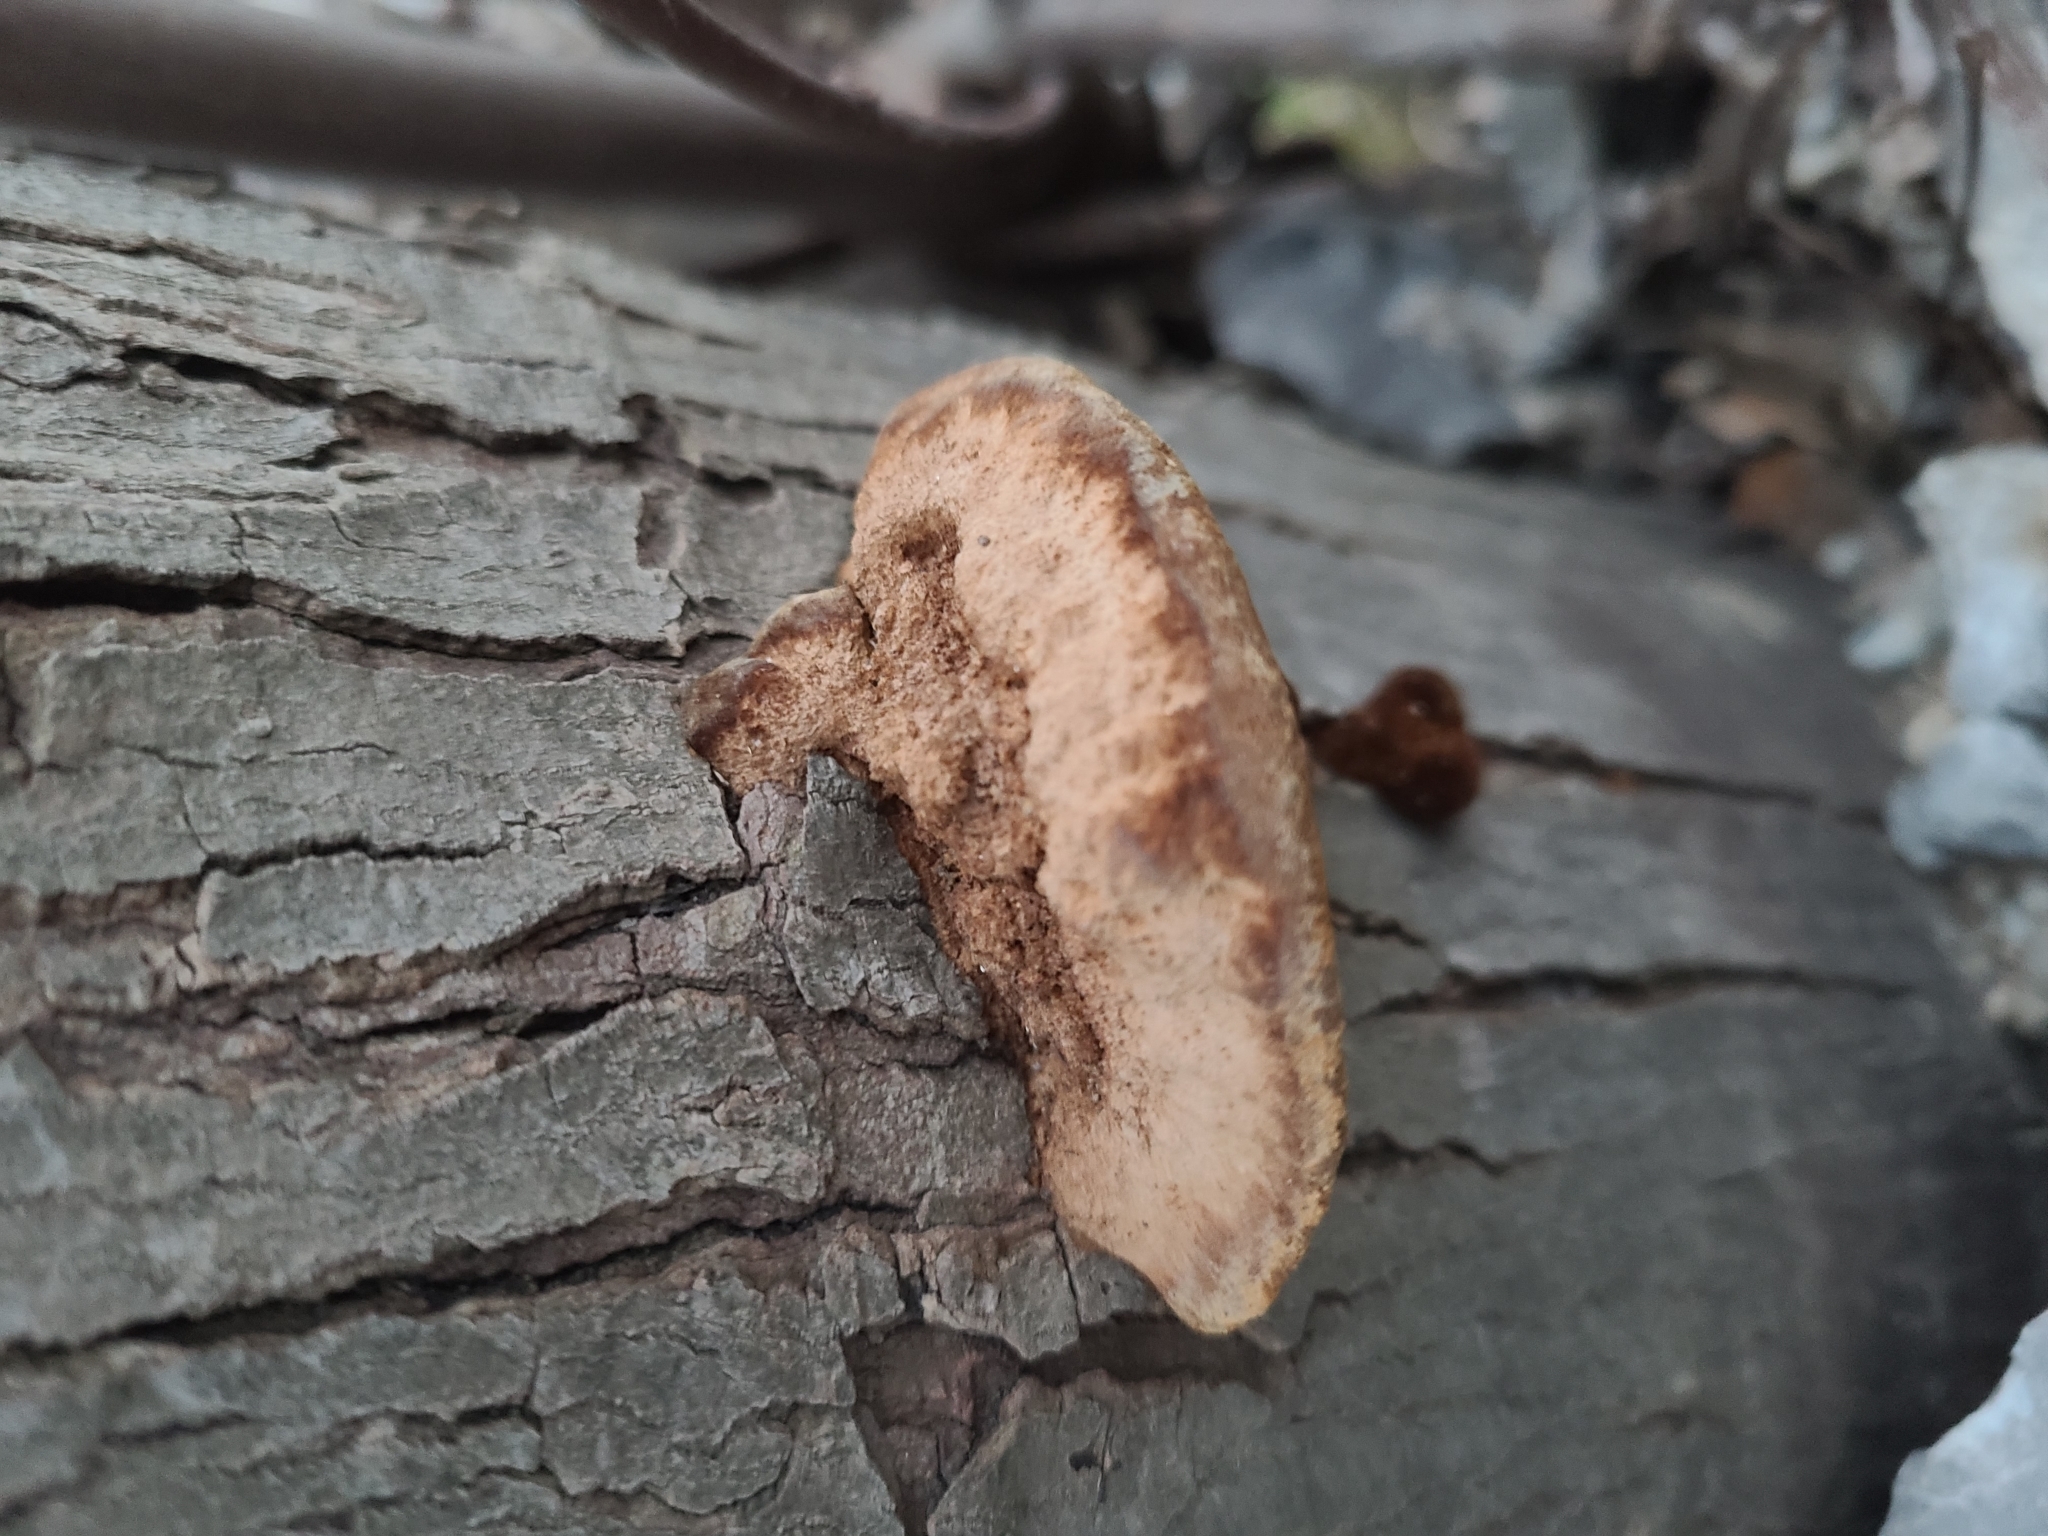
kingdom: Fungi
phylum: Basidiomycota
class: Agaricomycetes
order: Hymenochaetales
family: Hymenochaetaceae
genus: Phellinus
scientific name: Phellinus gilvus
